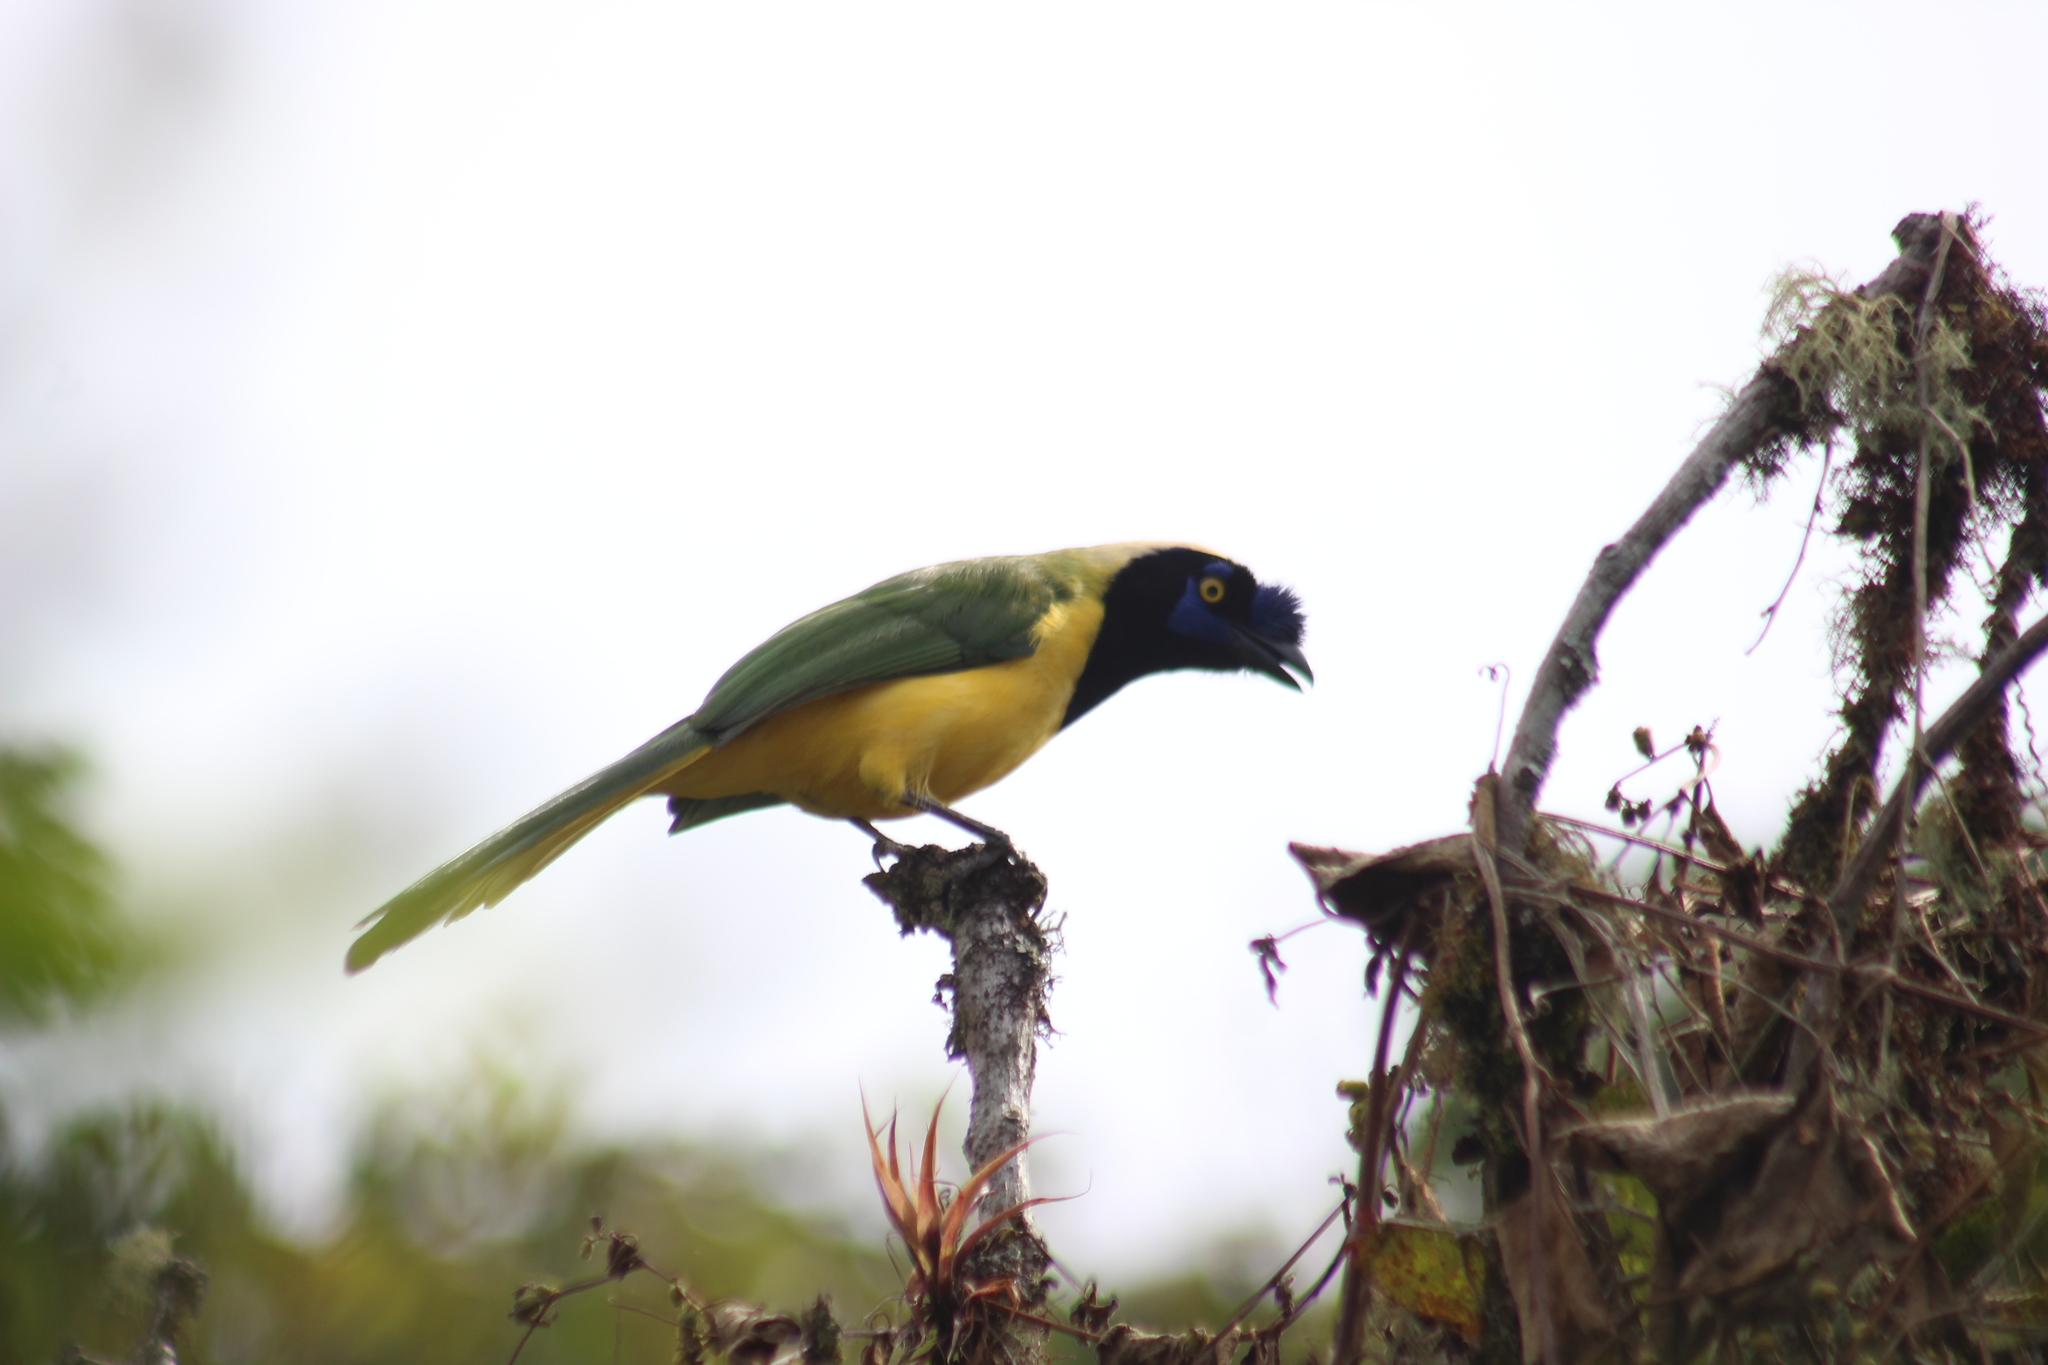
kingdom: Animalia
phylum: Chordata
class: Aves
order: Passeriformes
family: Corvidae
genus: Cyanocorax
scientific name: Cyanocorax yncas
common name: Green jay
